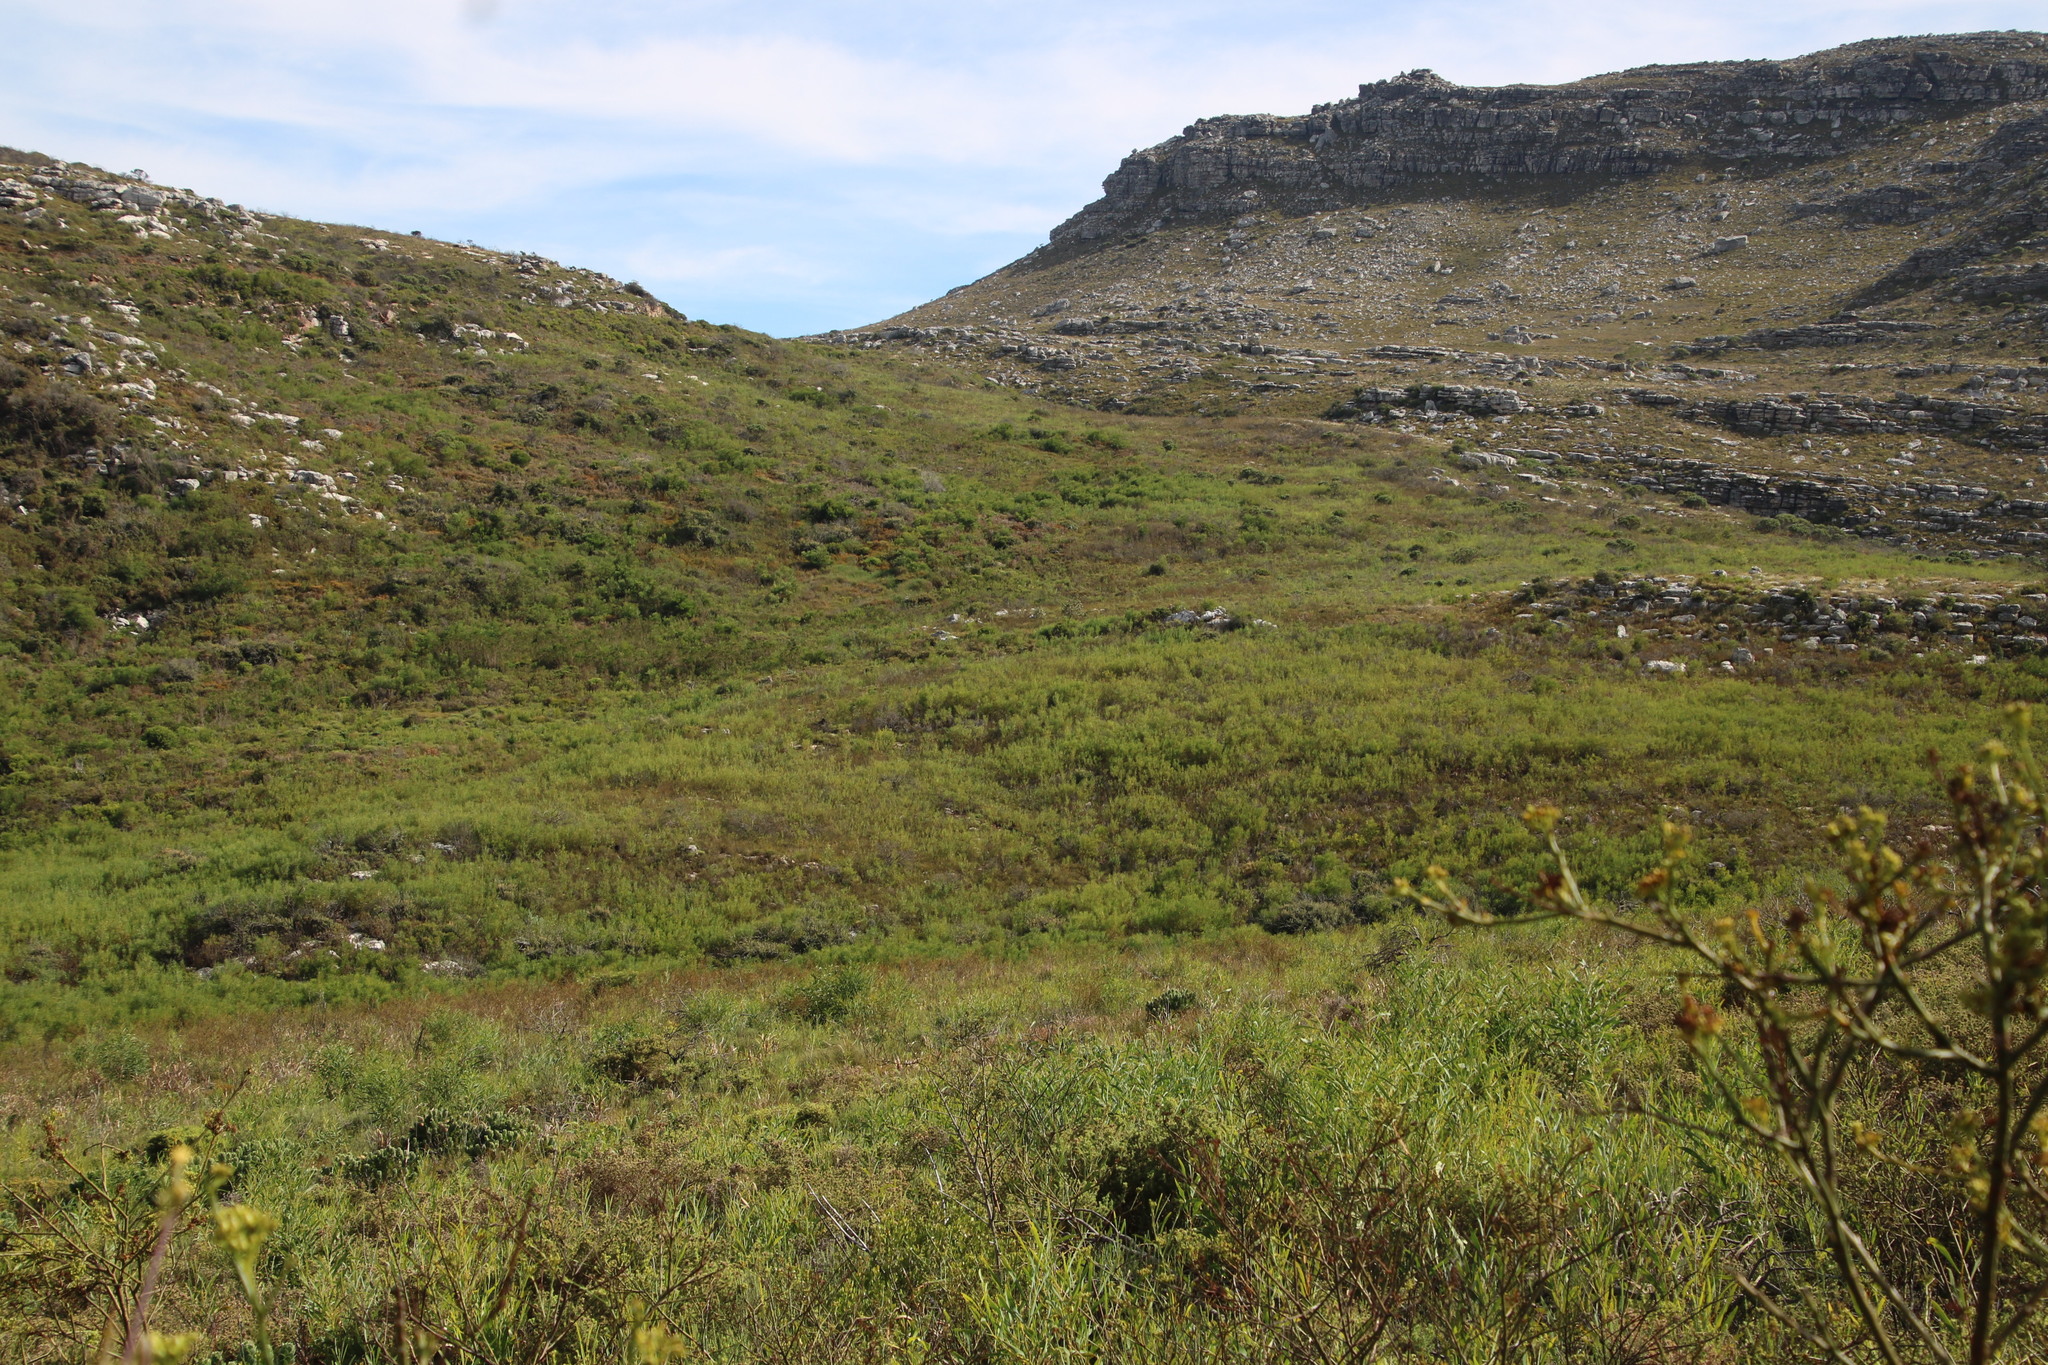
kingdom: Plantae
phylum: Tracheophyta
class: Magnoliopsida
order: Fabales
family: Fabaceae
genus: Acacia
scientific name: Acacia saligna
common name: Orange wattle
